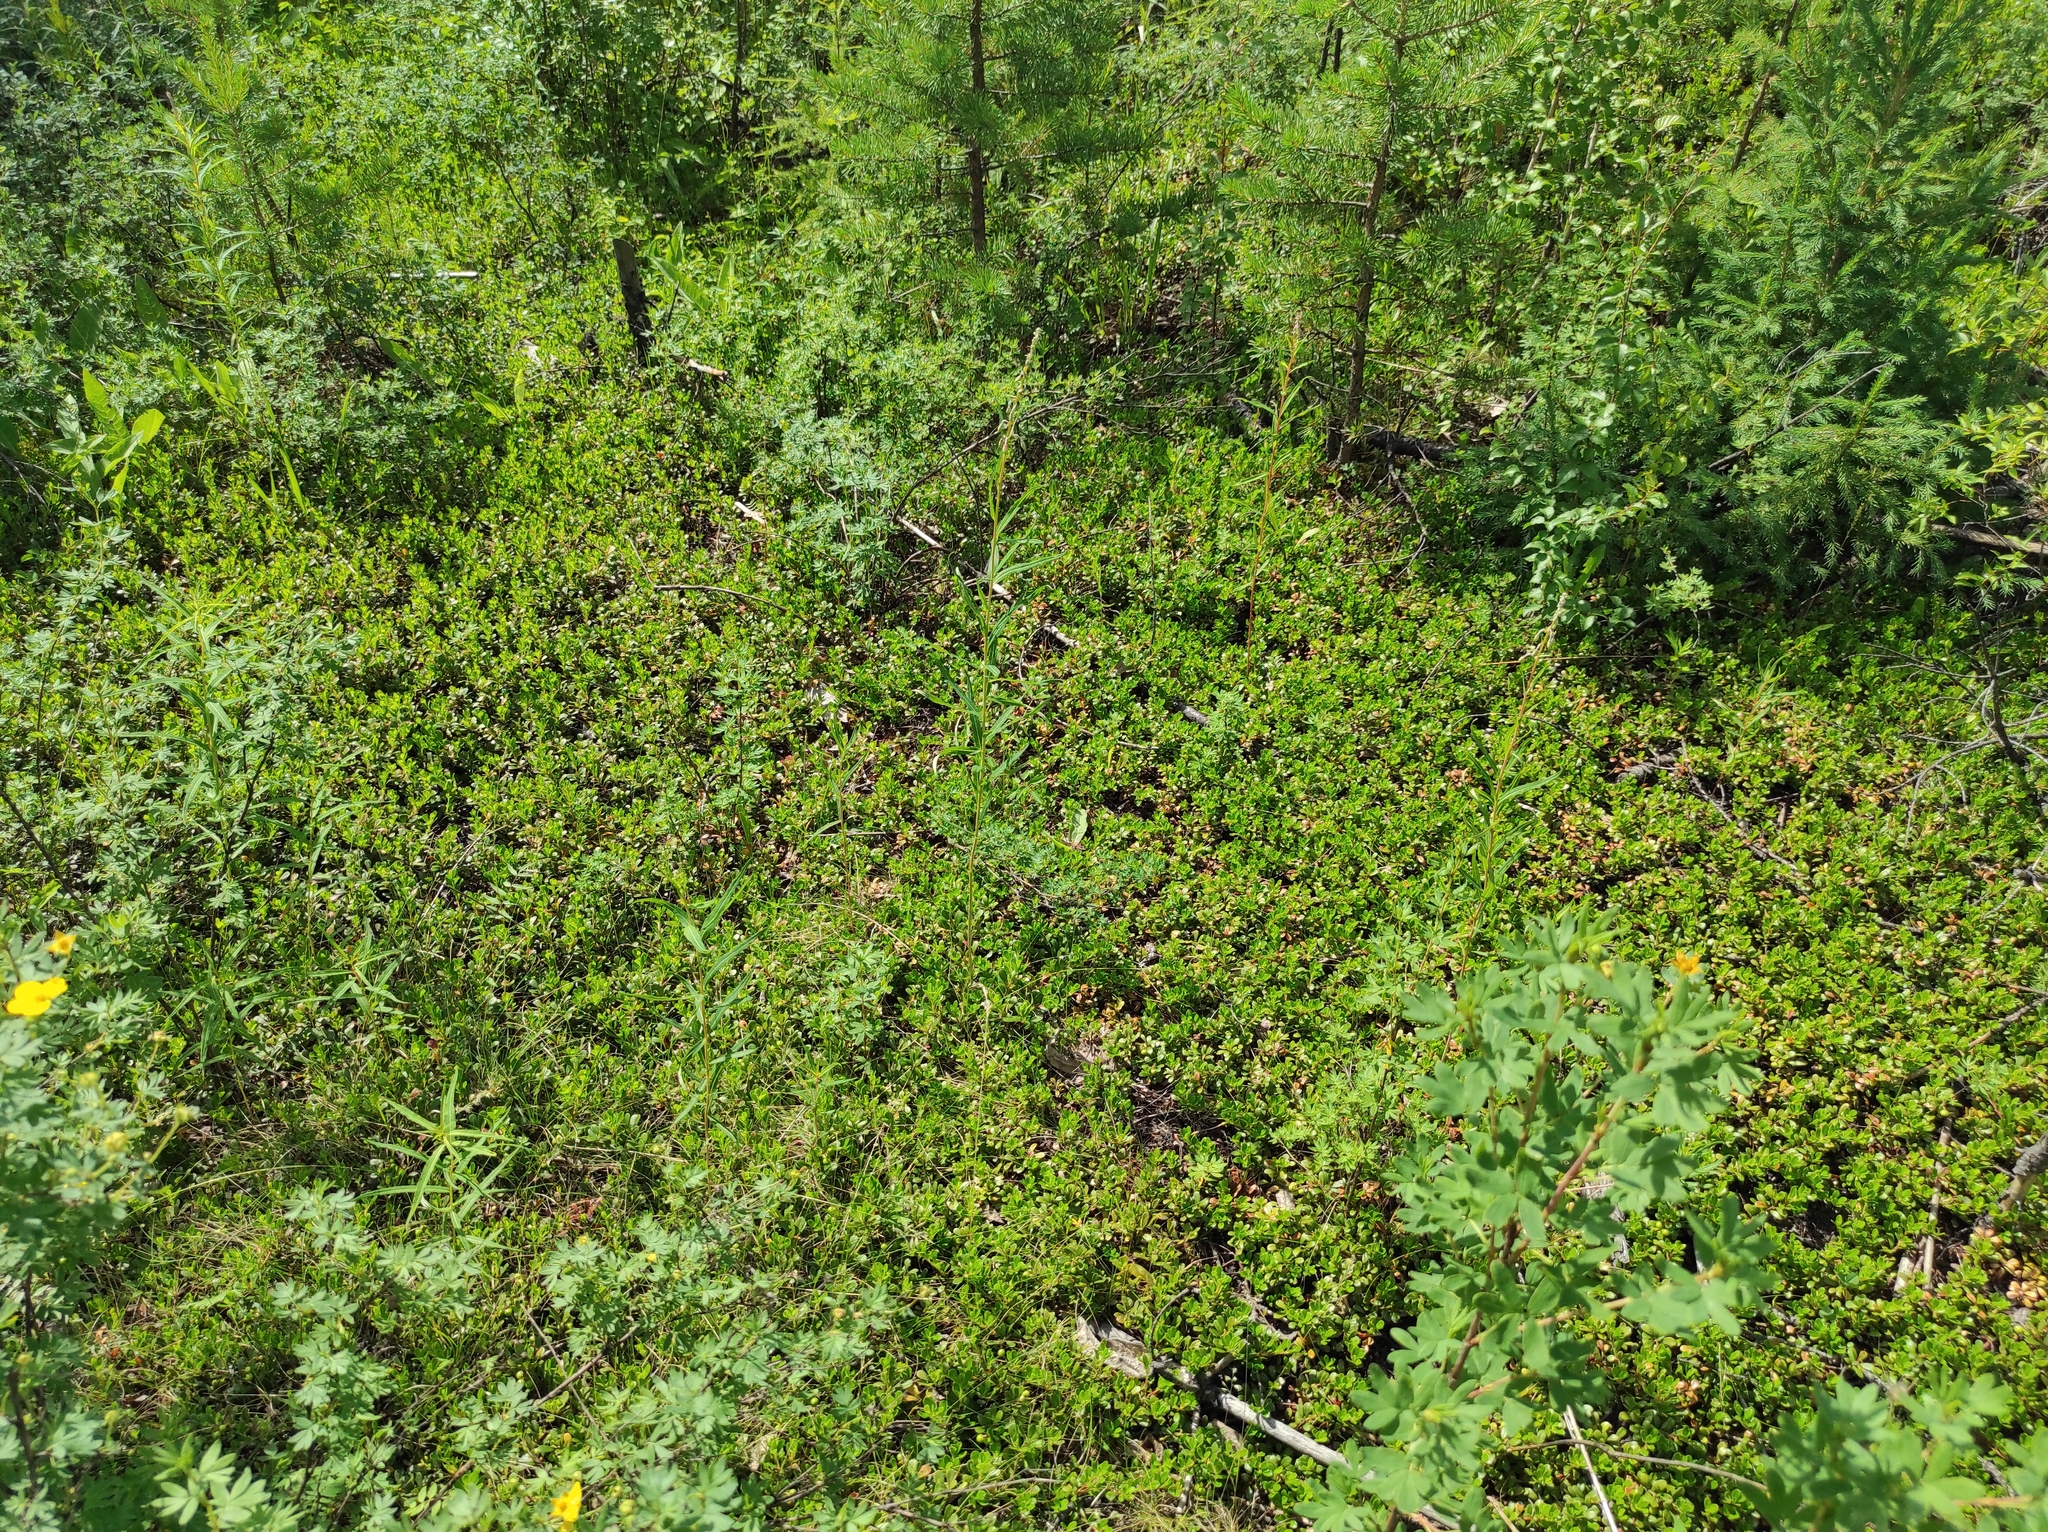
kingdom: Plantae
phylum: Tracheophyta
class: Magnoliopsida
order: Ericales
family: Ericaceae
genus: Arctostaphylos
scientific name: Arctostaphylos uva-ursi
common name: Bearberry
